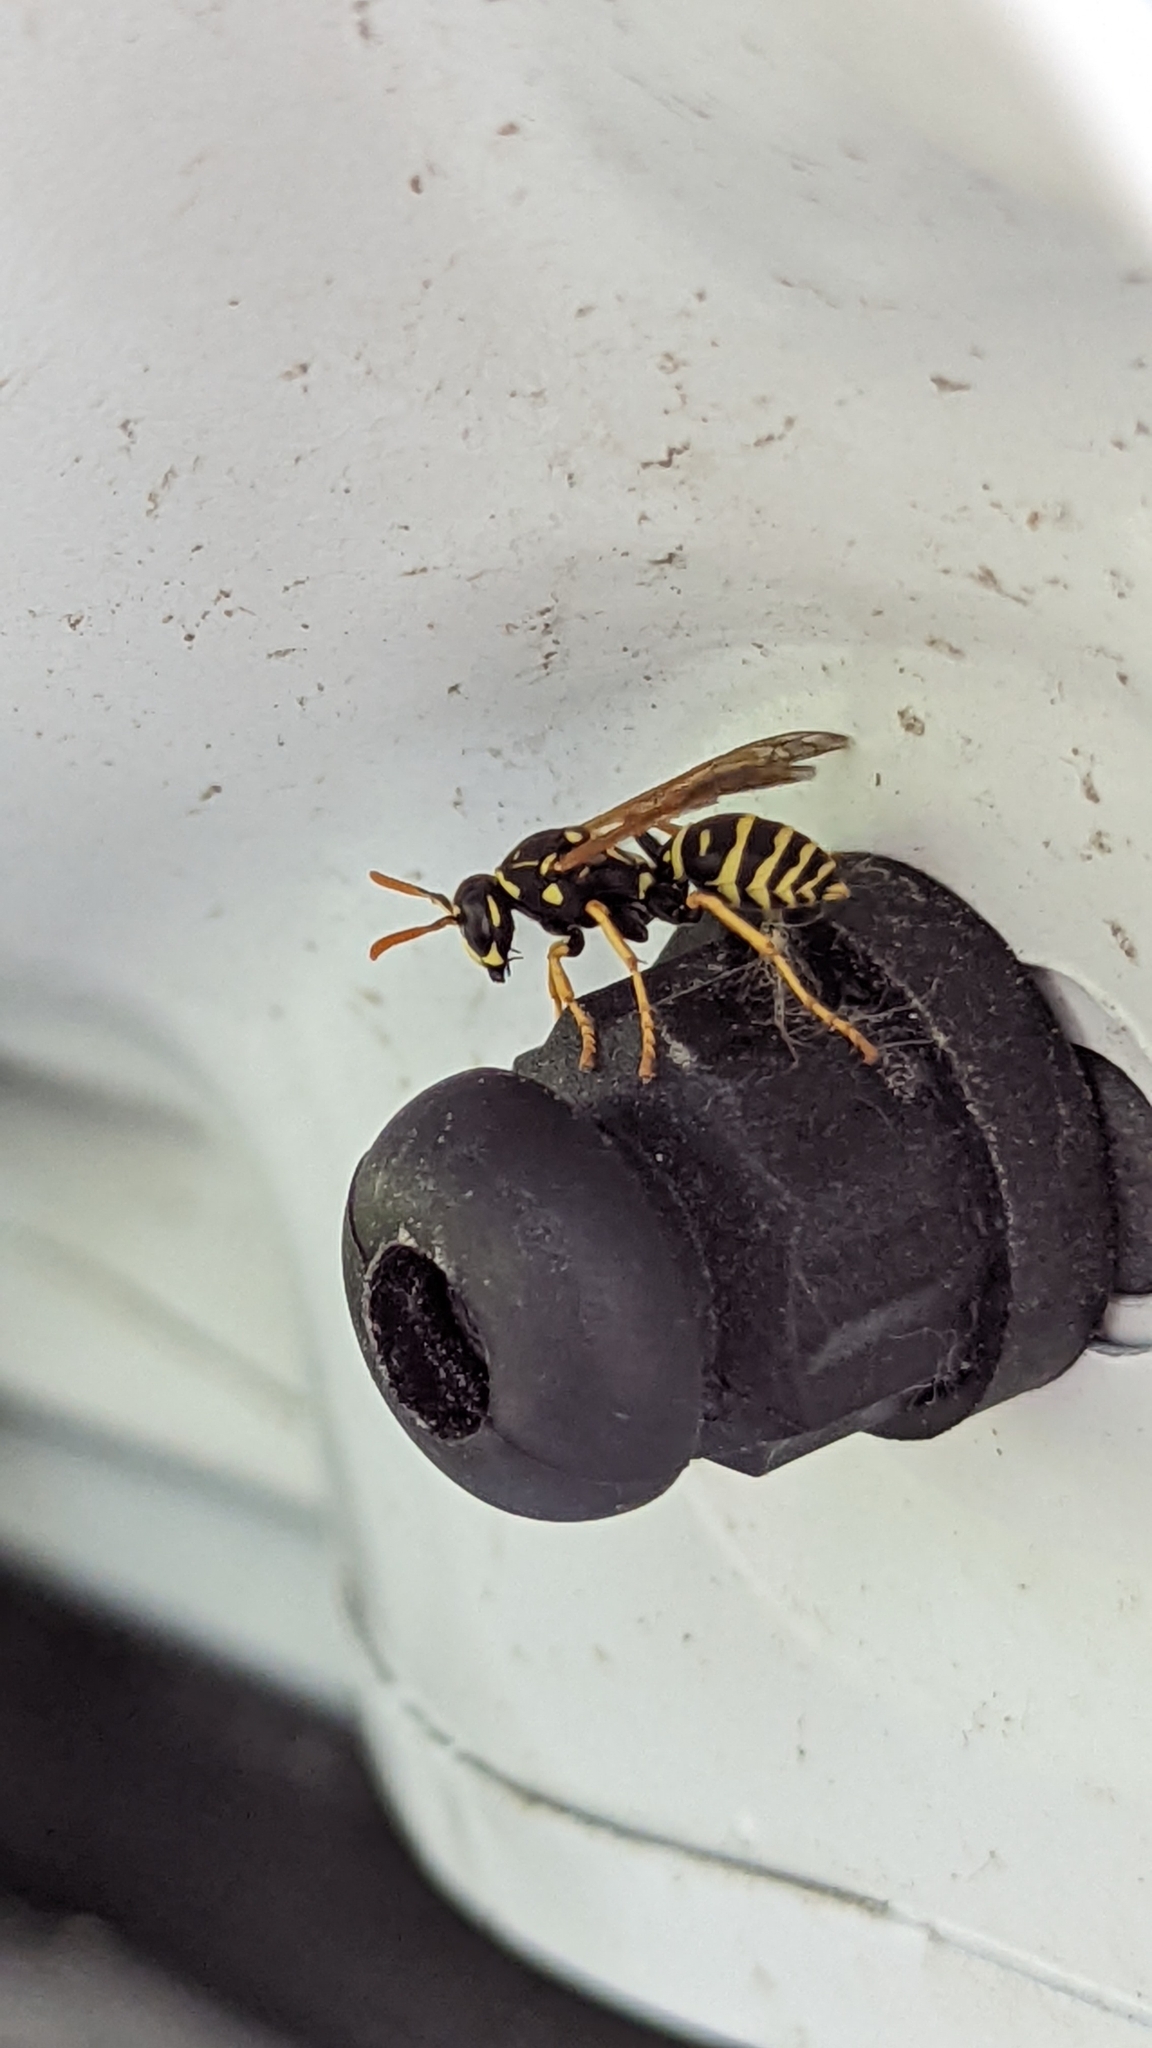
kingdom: Animalia
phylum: Arthropoda
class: Insecta
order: Hymenoptera
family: Eumenidae
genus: Polistes
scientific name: Polistes dominula
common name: Paper wasp
